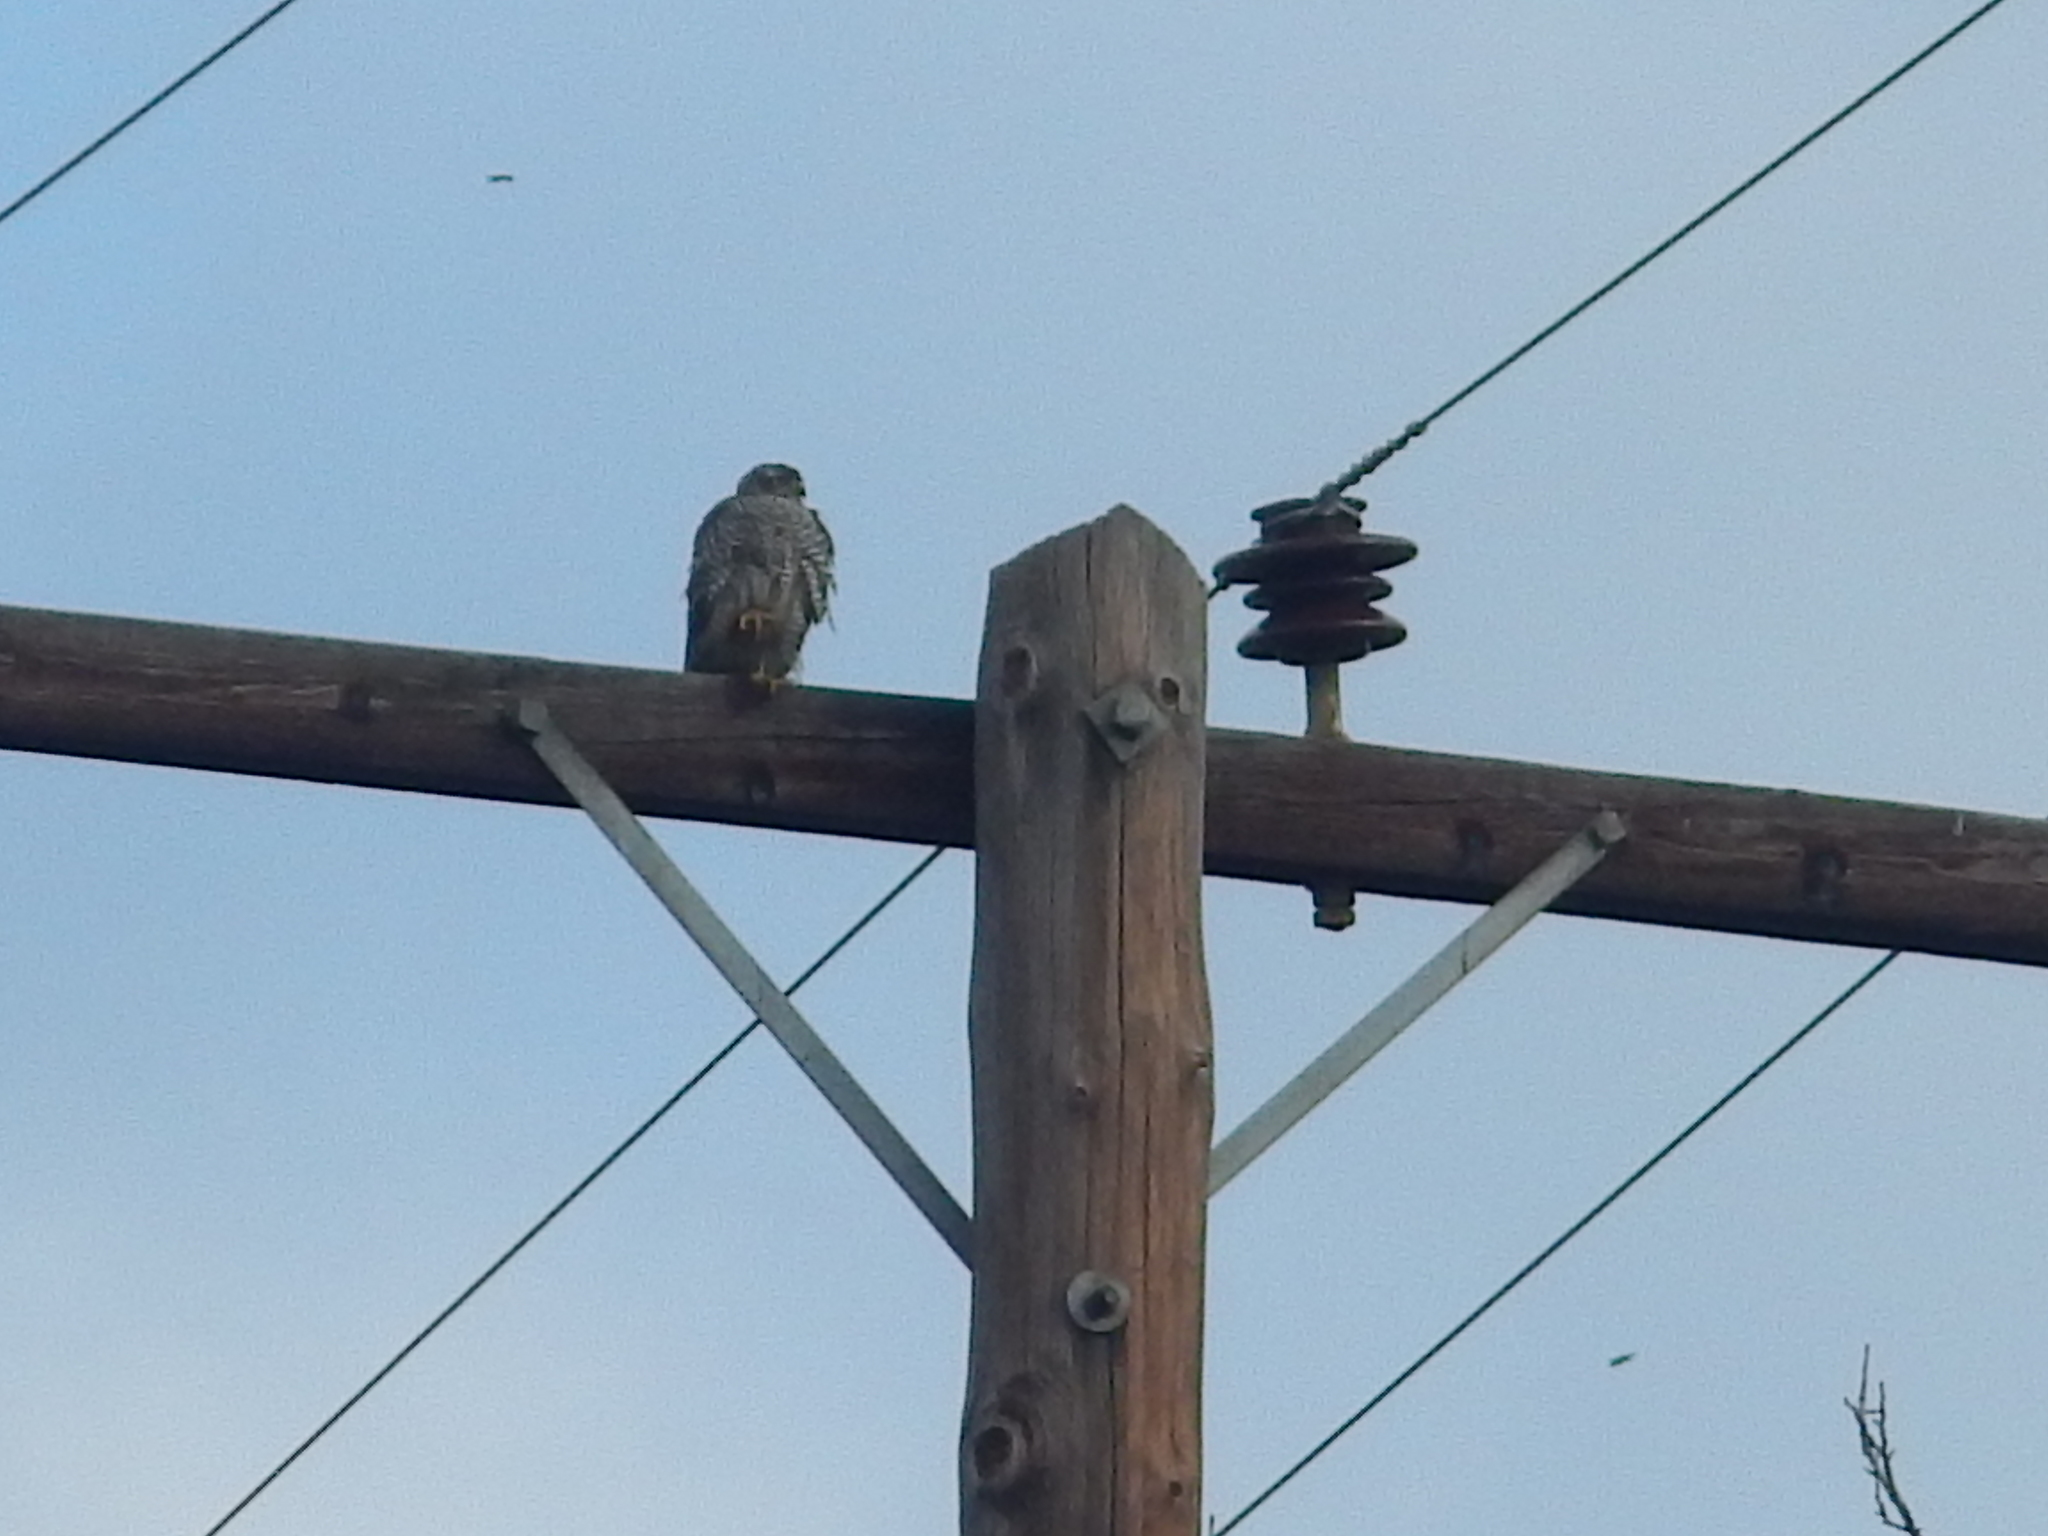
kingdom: Animalia
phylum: Chordata
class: Aves
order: Accipitriformes
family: Accipitridae
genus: Accipiter
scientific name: Accipiter nisus
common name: Eurasian sparrowhawk
